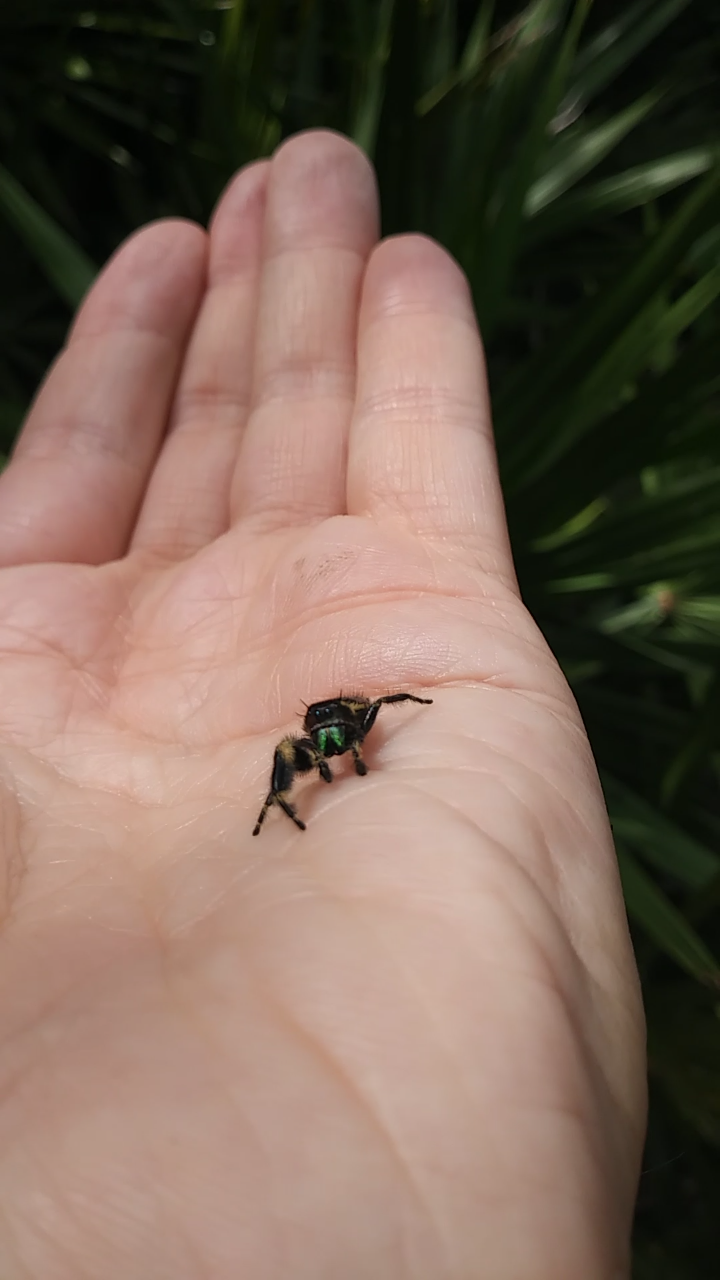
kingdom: Animalia
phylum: Arthropoda
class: Arachnida
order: Araneae
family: Salticidae
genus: Phidippus
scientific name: Phidippus otiosus
